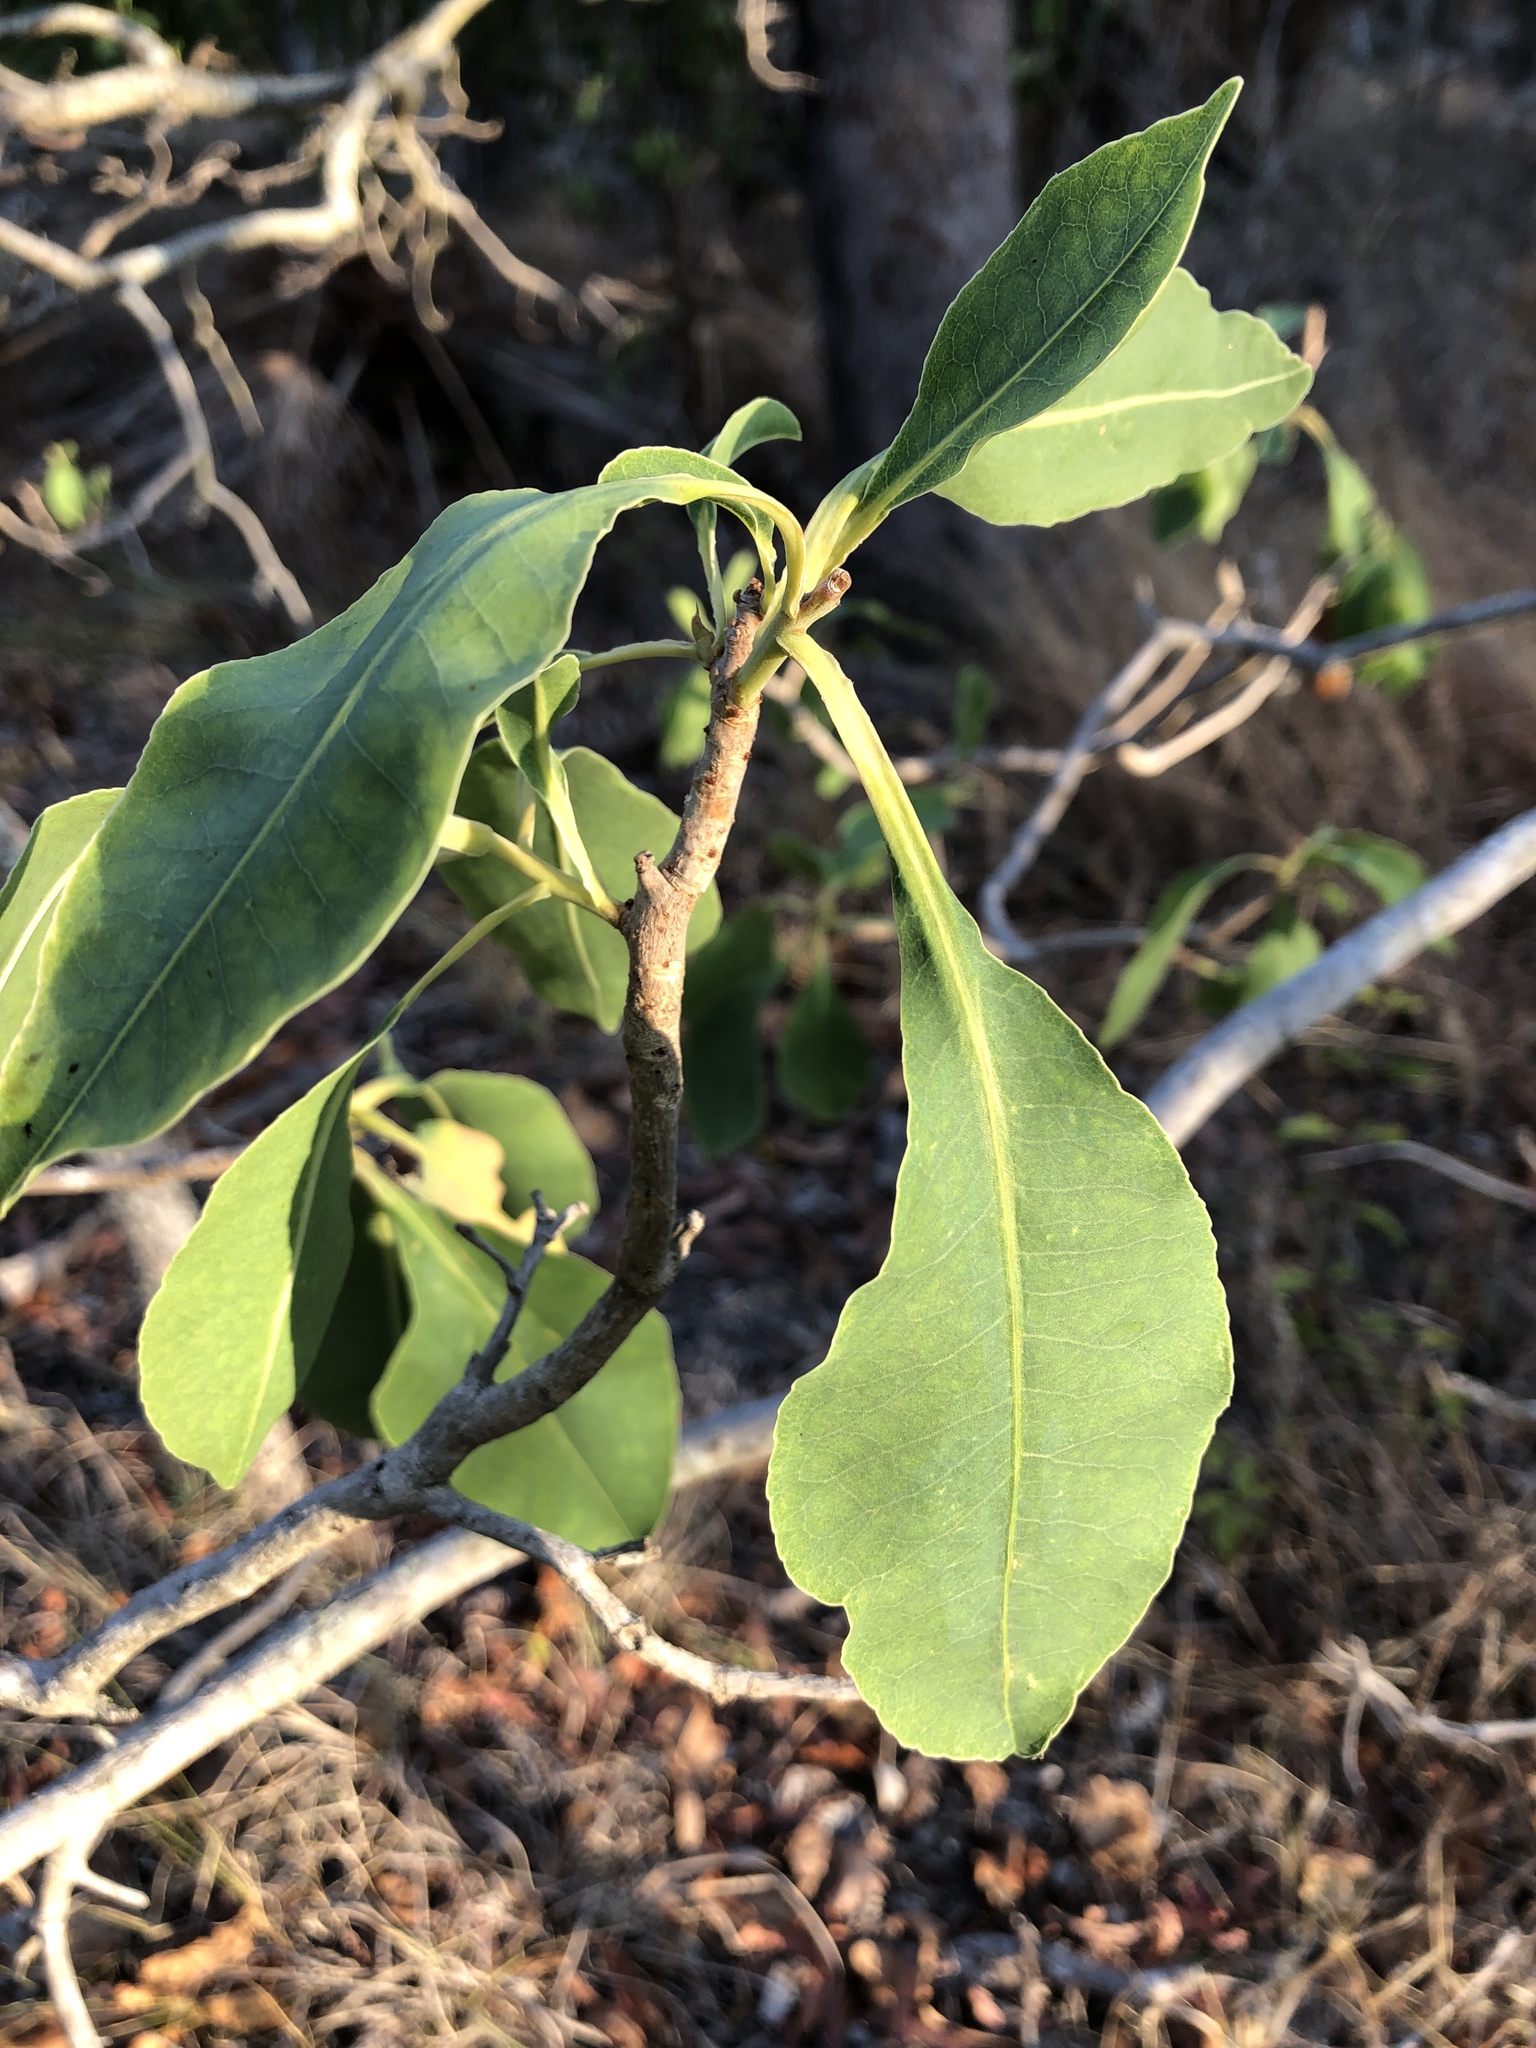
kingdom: Plantae
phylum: Tracheophyta
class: Magnoliopsida
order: Ericales
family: Lecythidaceae
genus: Planchonia
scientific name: Planchonia careya
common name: Cockatoo-apple
